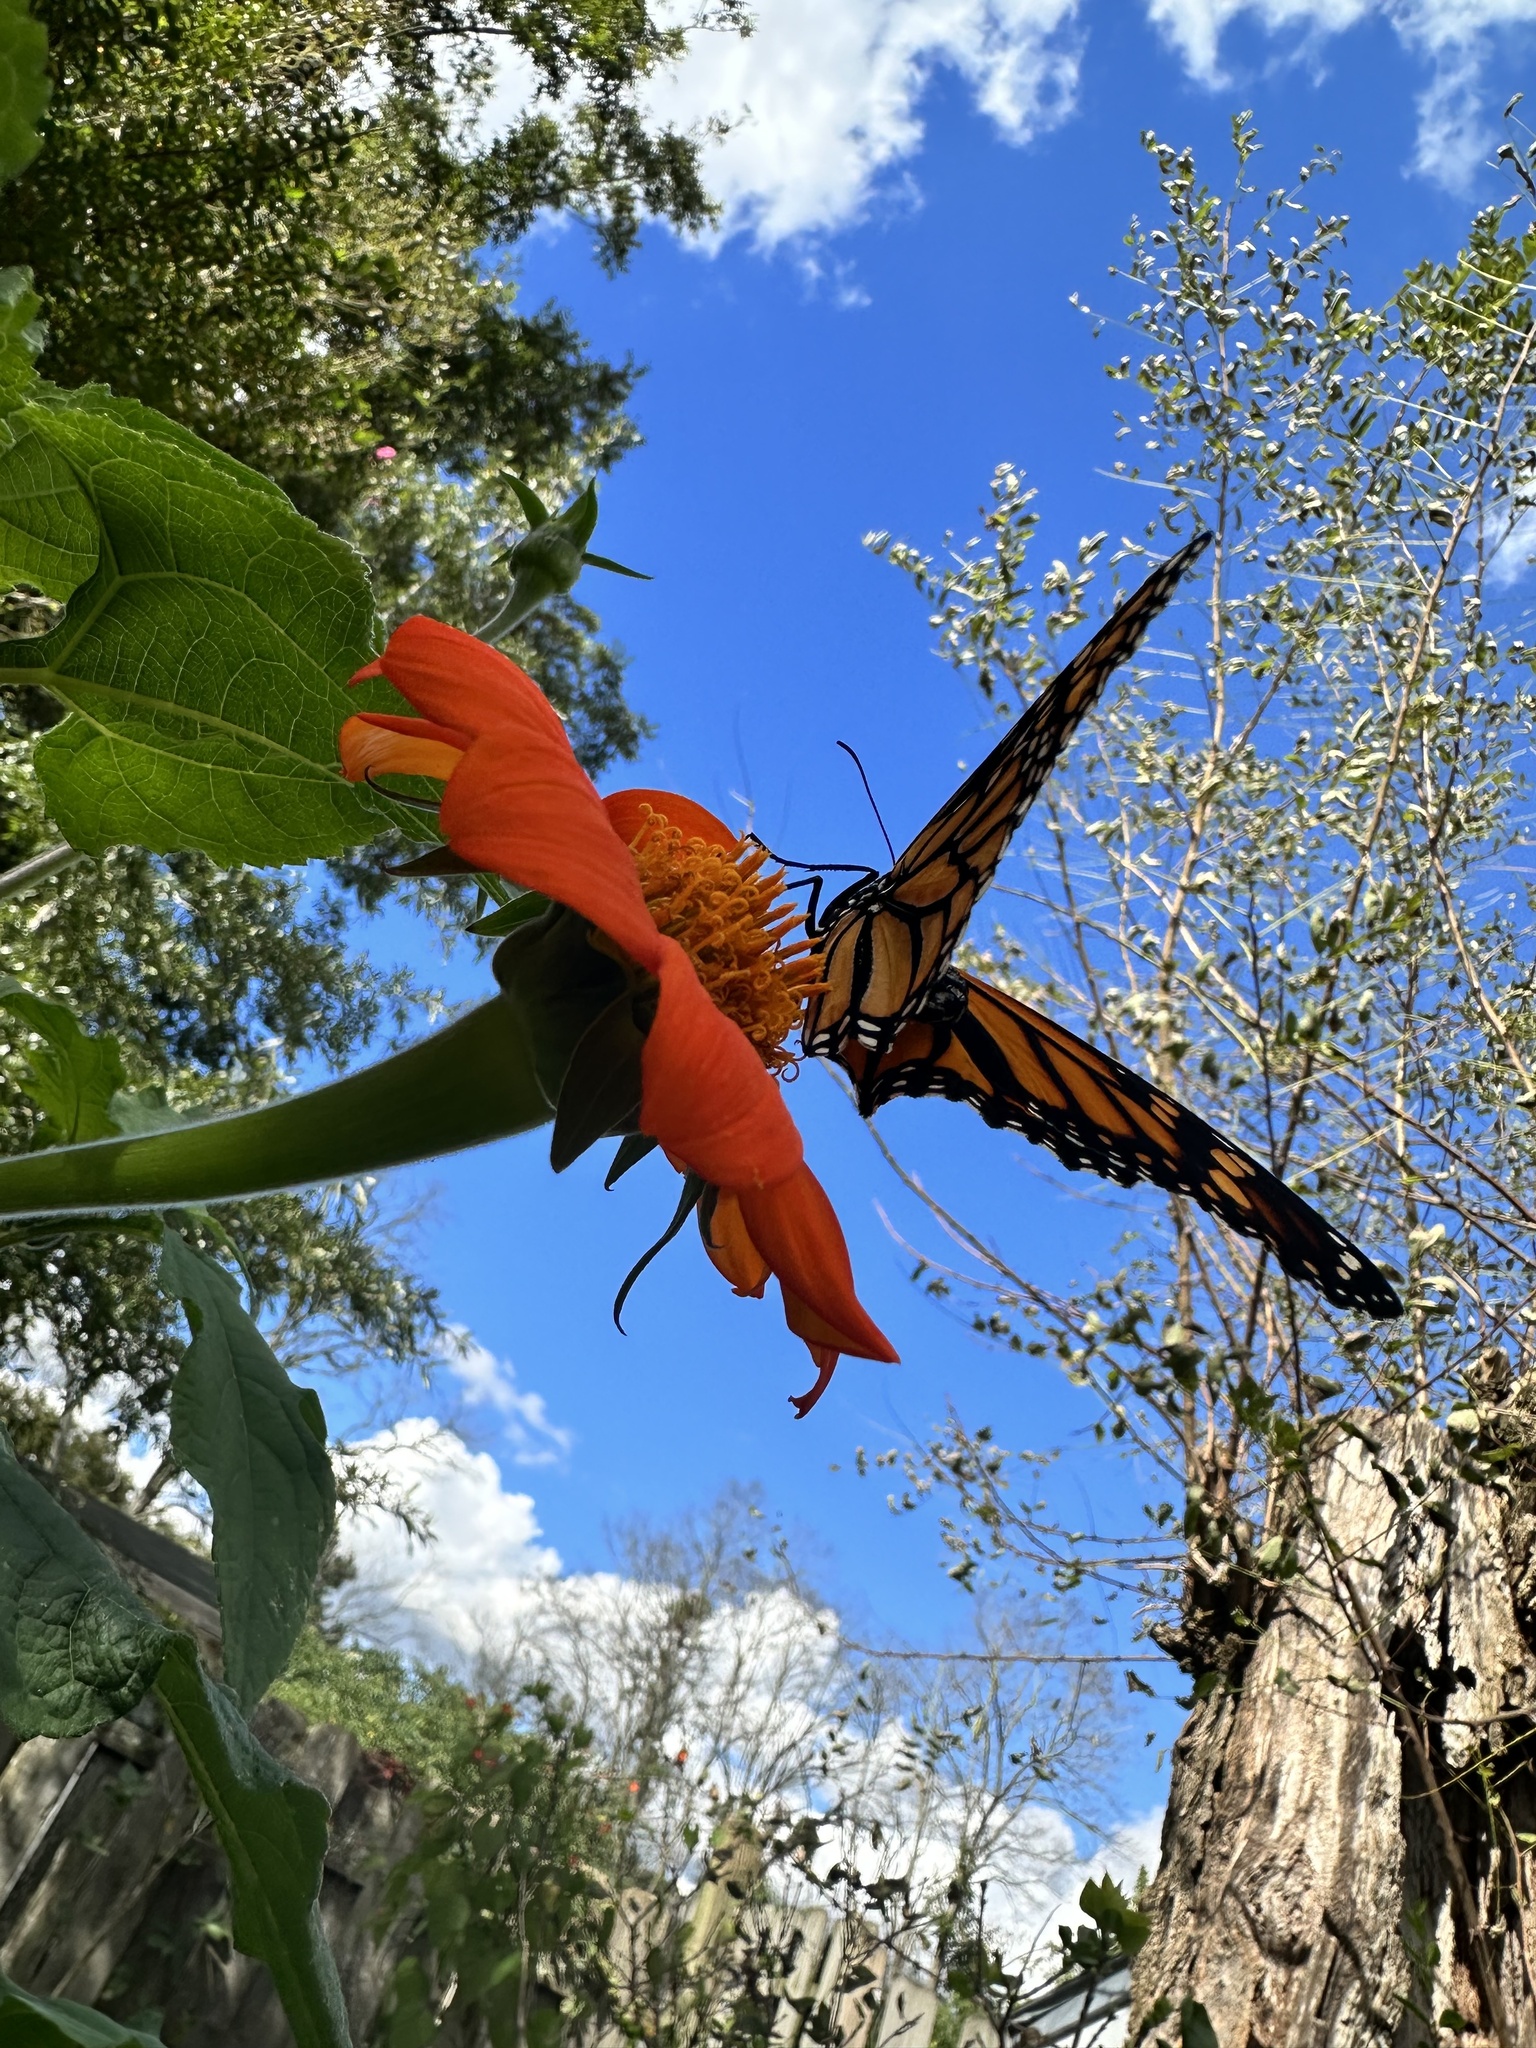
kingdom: Animalia
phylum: Arthropoda
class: Insecta
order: Lepidoptera
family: Nymphalidae
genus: Danaus
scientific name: Danaus plexippus
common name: Monarch
